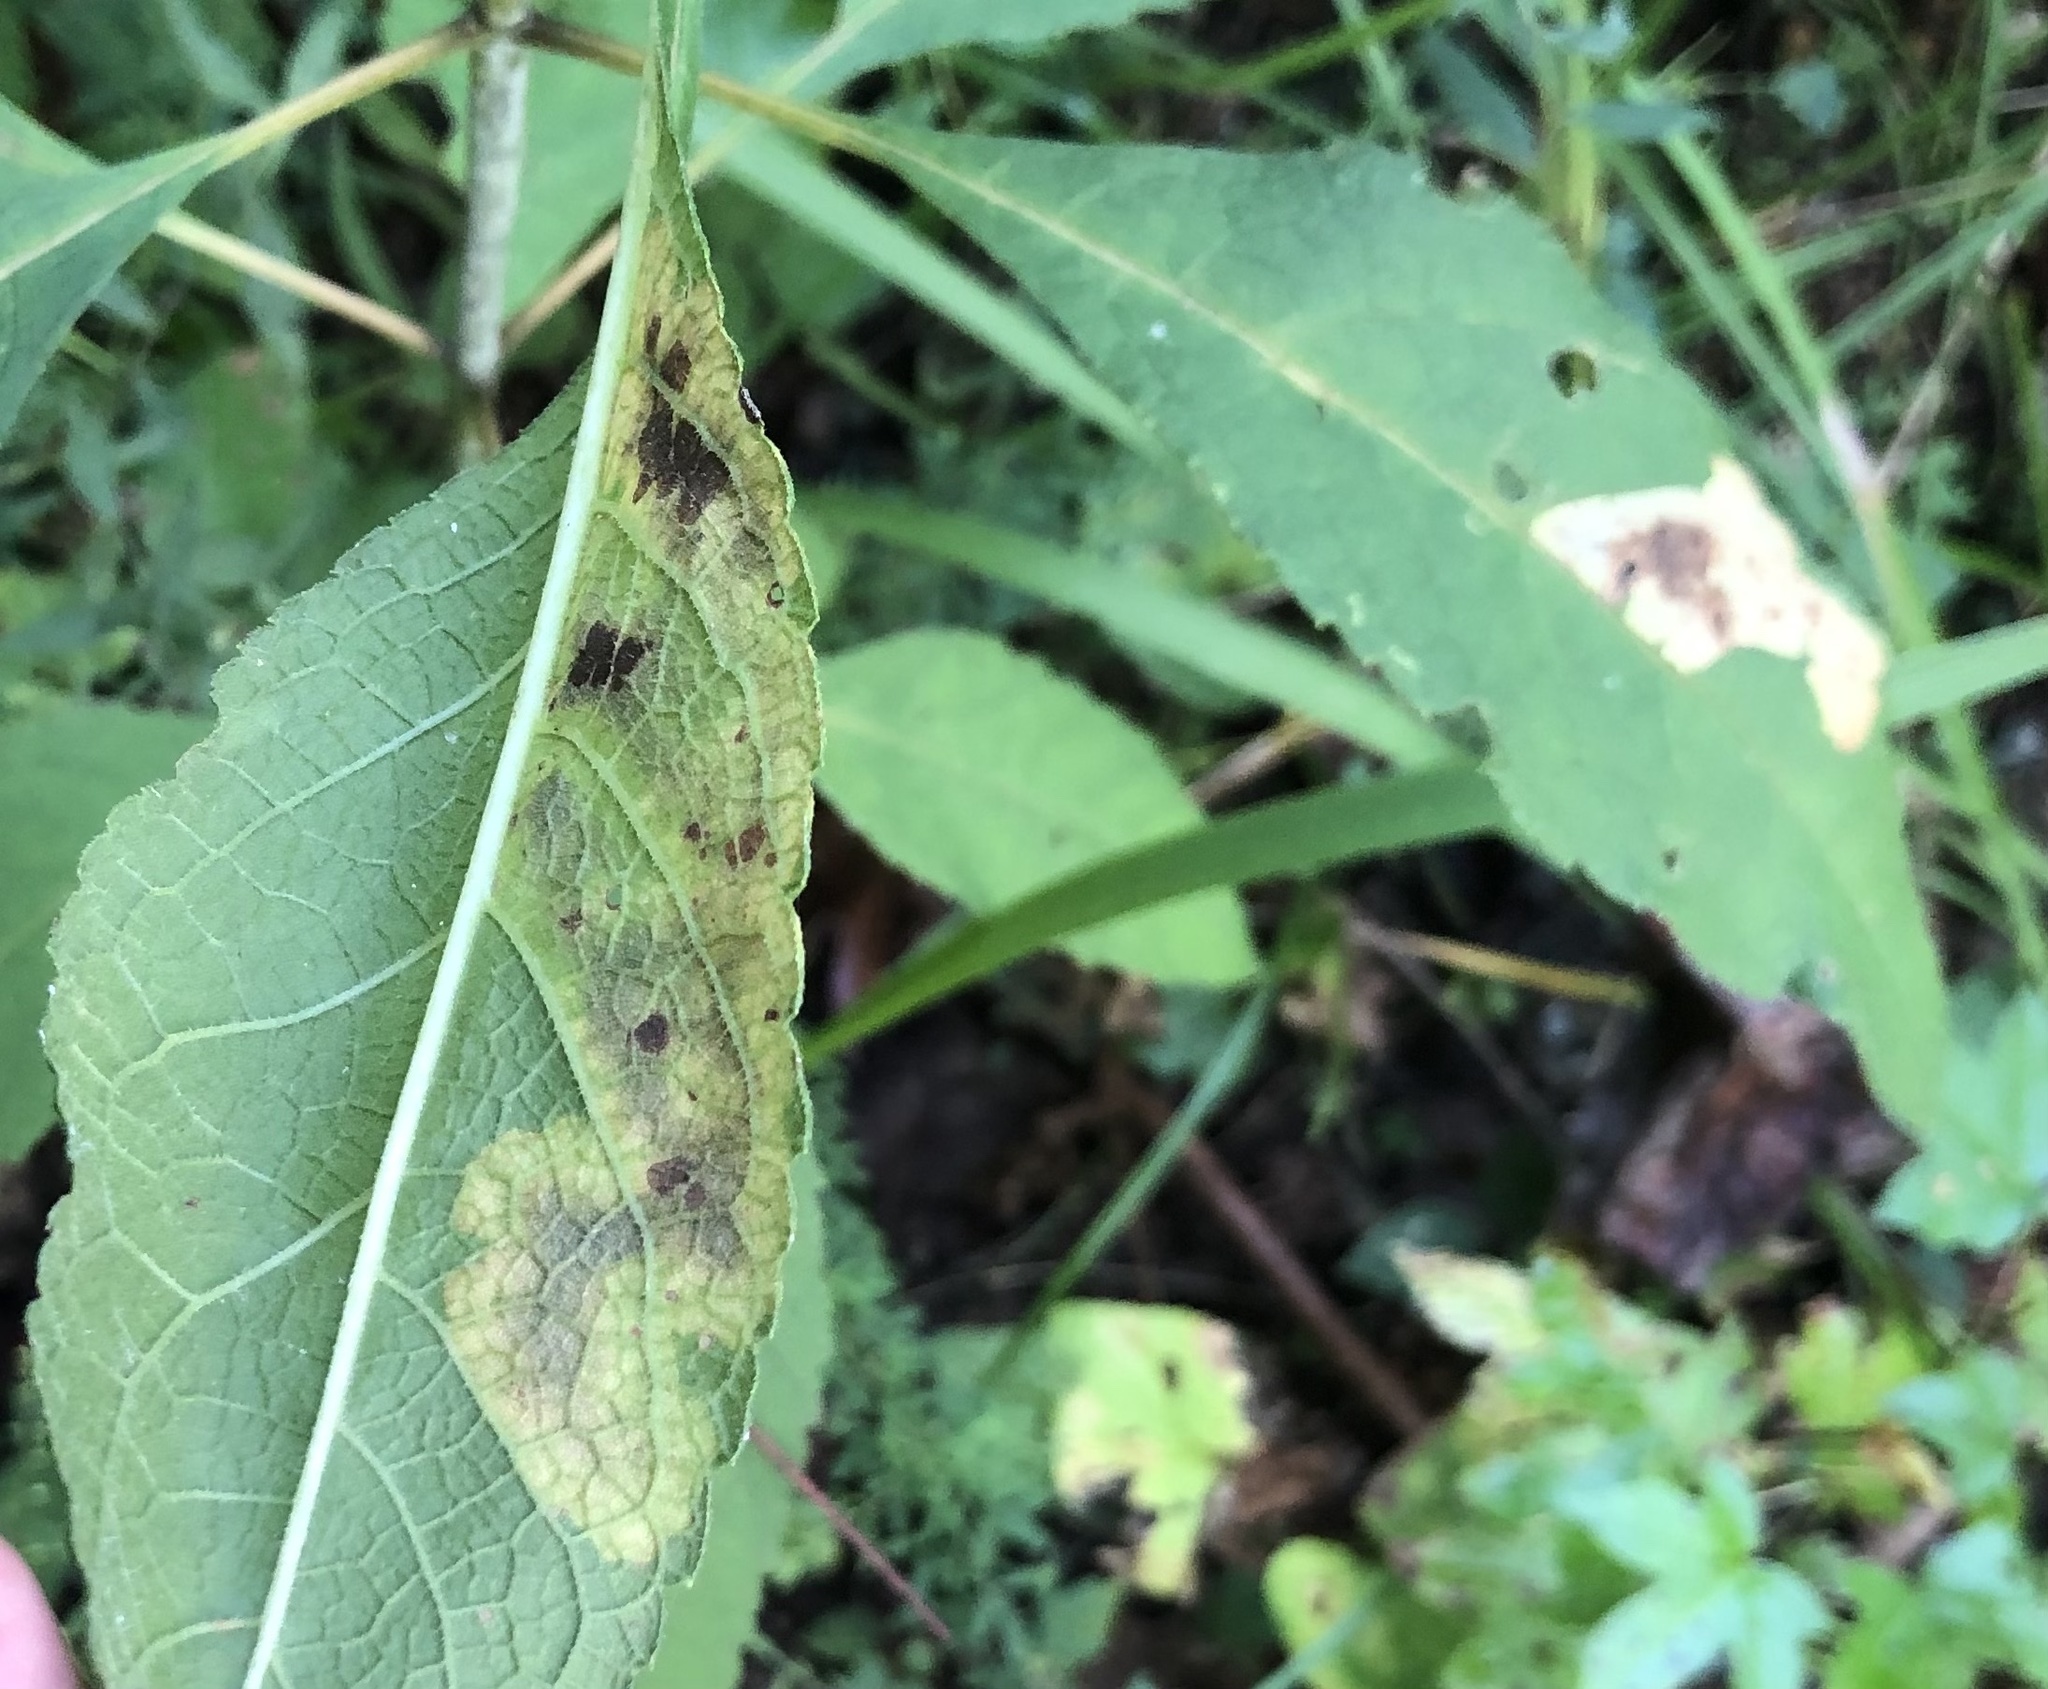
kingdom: Animalia
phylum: Arthropoda
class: Insecta
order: Diptera
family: Agromyzidae
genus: Calycomyza
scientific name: Calycomyza flavinotum
